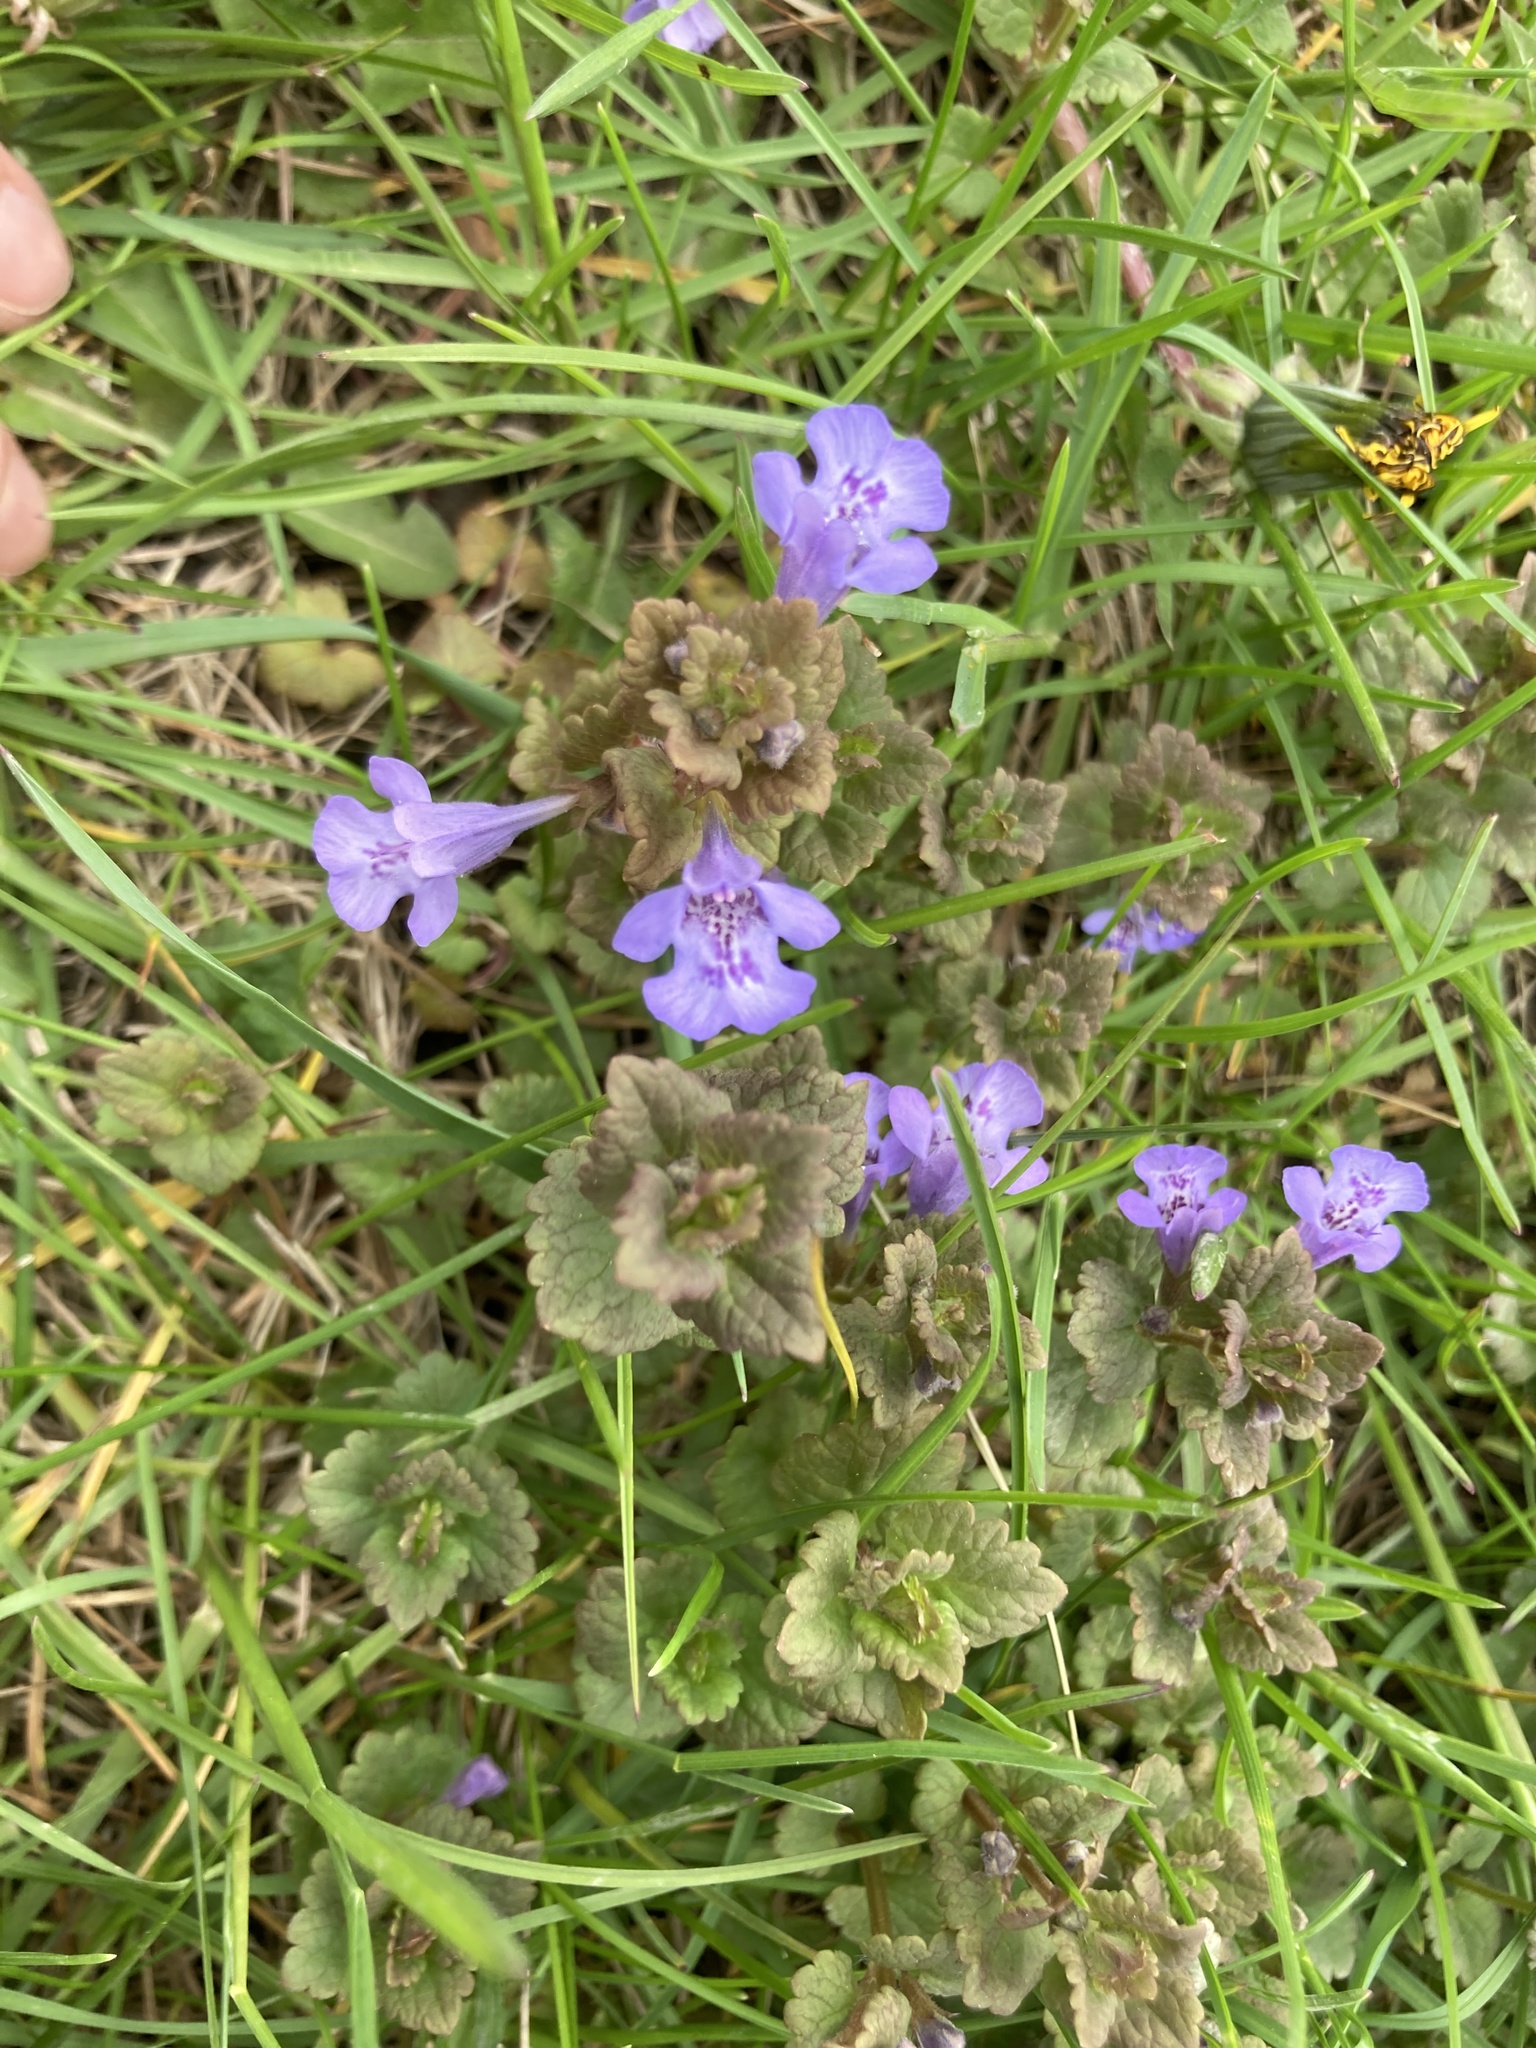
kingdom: Plantae
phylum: Tracheophyta
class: Magnoliopsida
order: Lamiales
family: Lamiaceae
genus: Glechoma
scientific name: Glechoma hederacea
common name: Ground ivy
